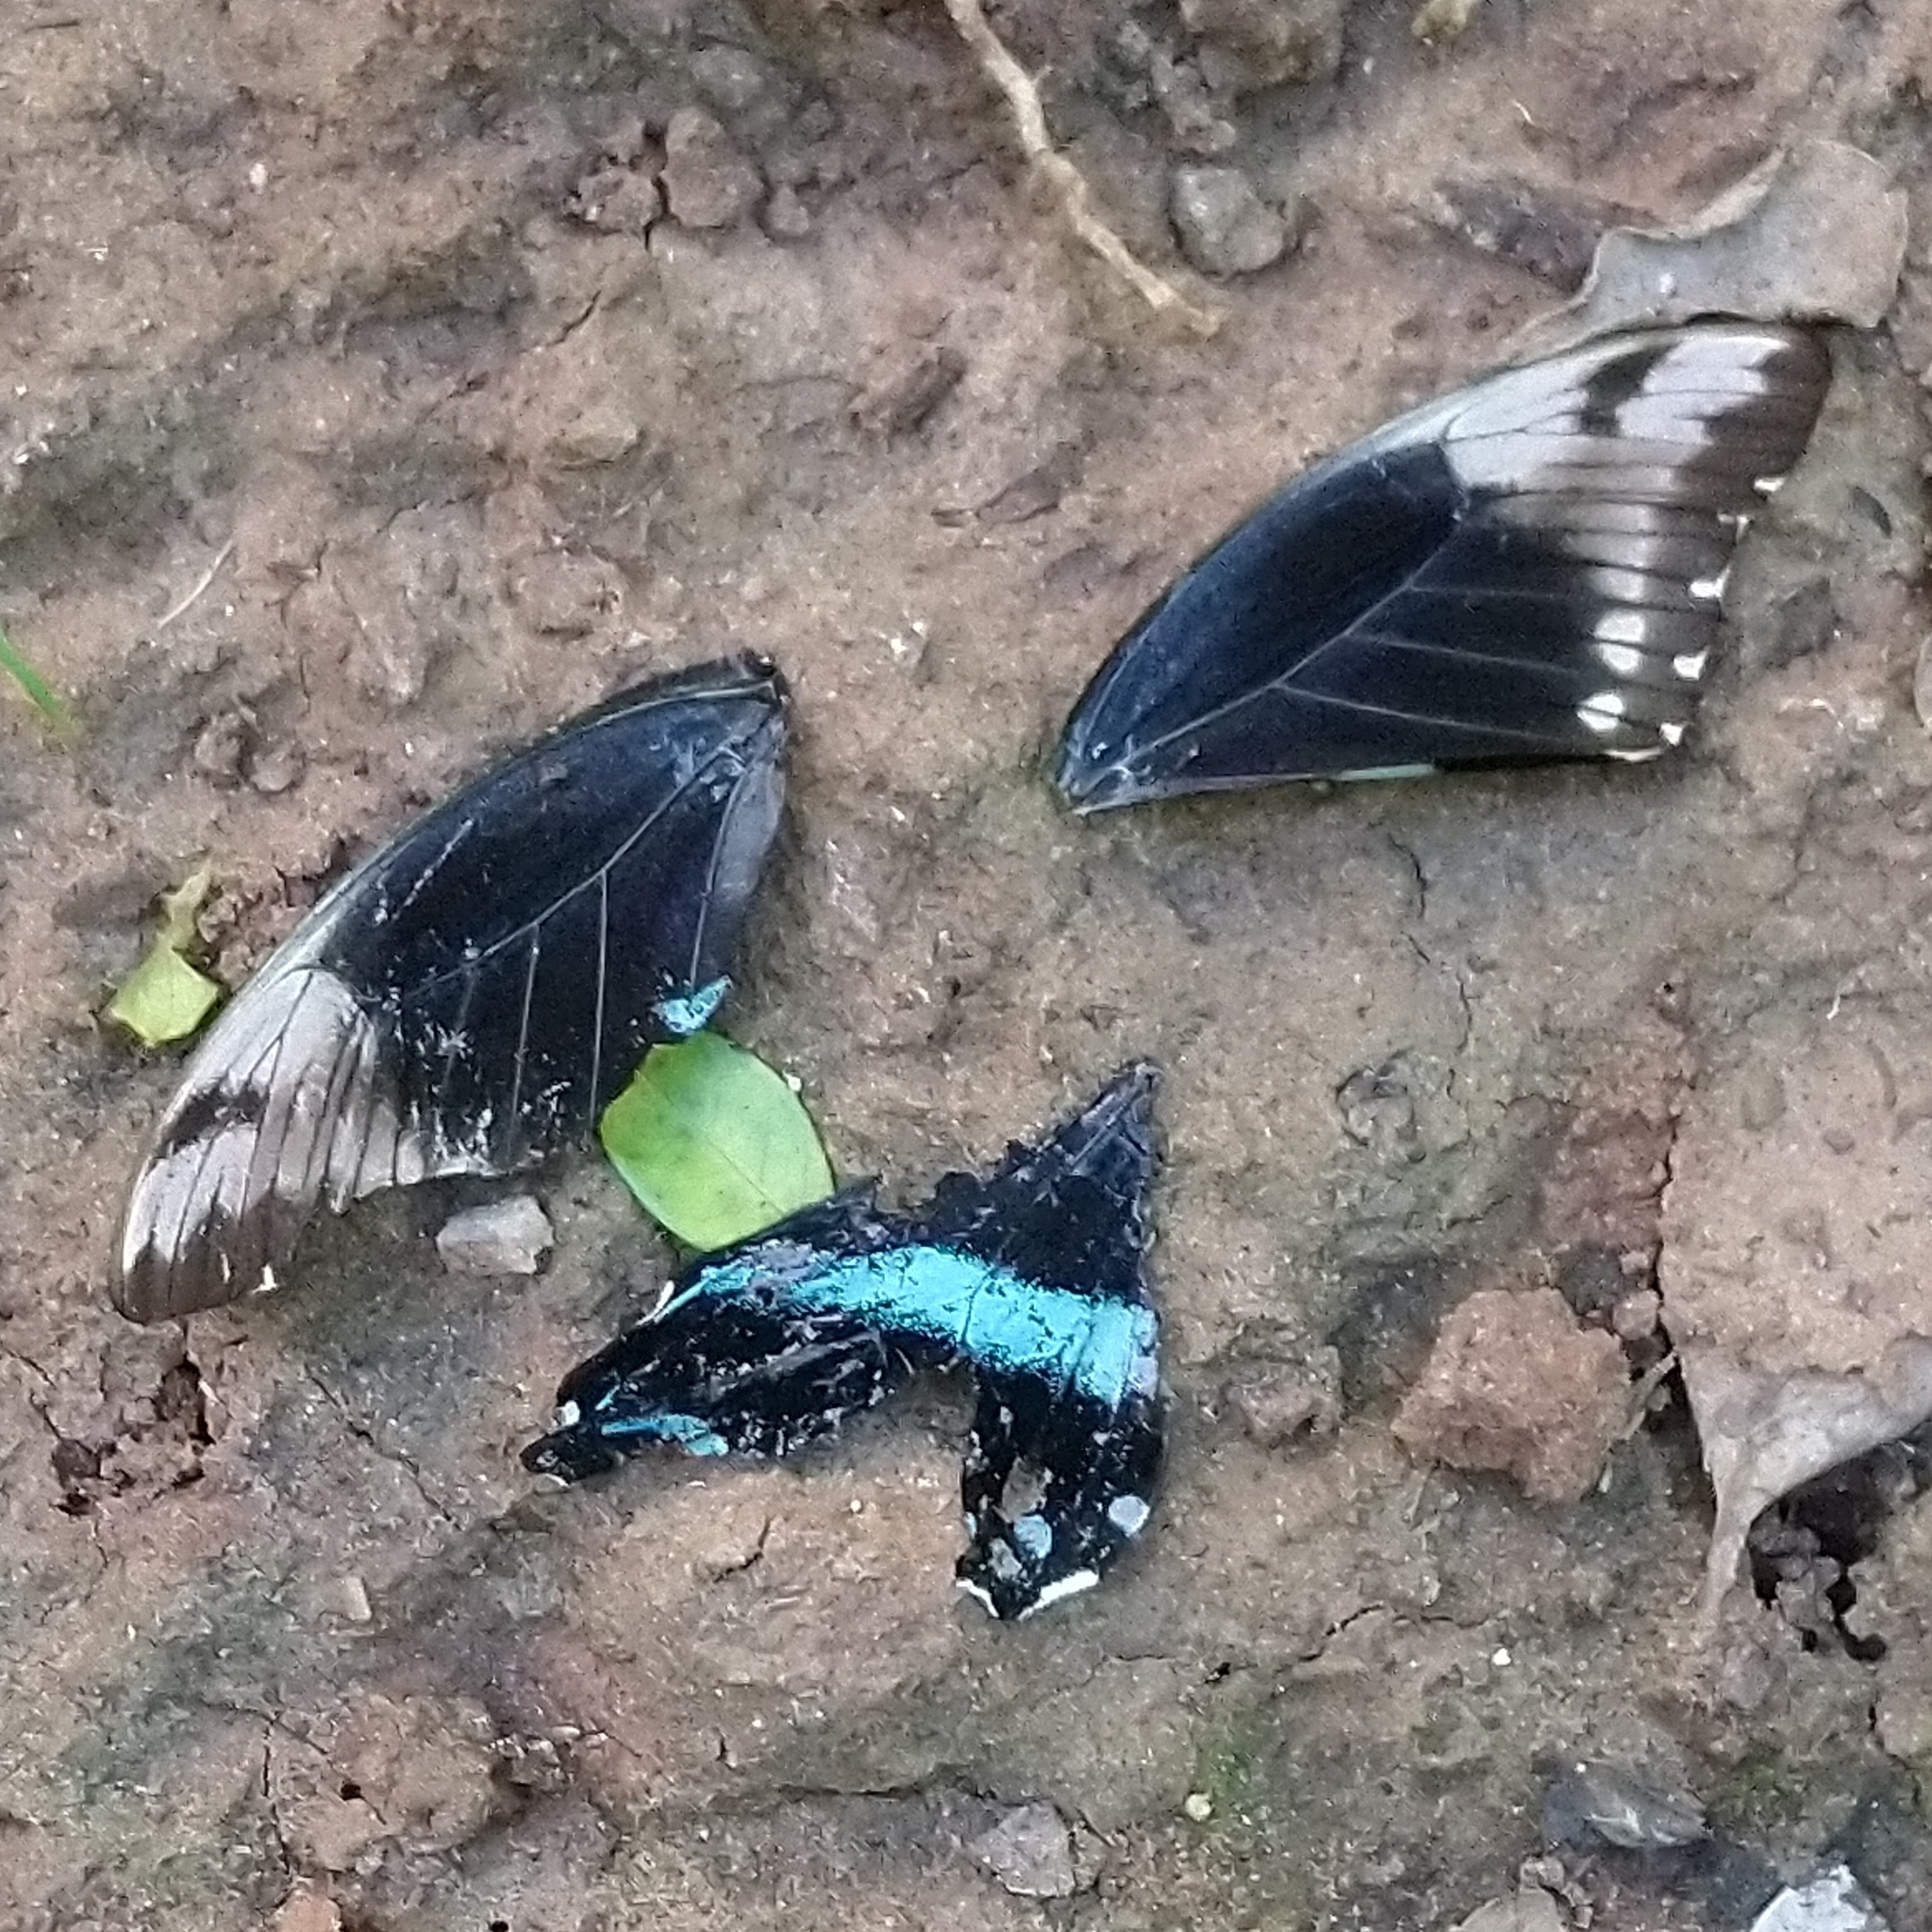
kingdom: Animalia
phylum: Arthropoda
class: Insecta
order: Lepidoptera
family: Papilionidae
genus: Papilio
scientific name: Papilio nireus
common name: Greenbanded swallowtail
